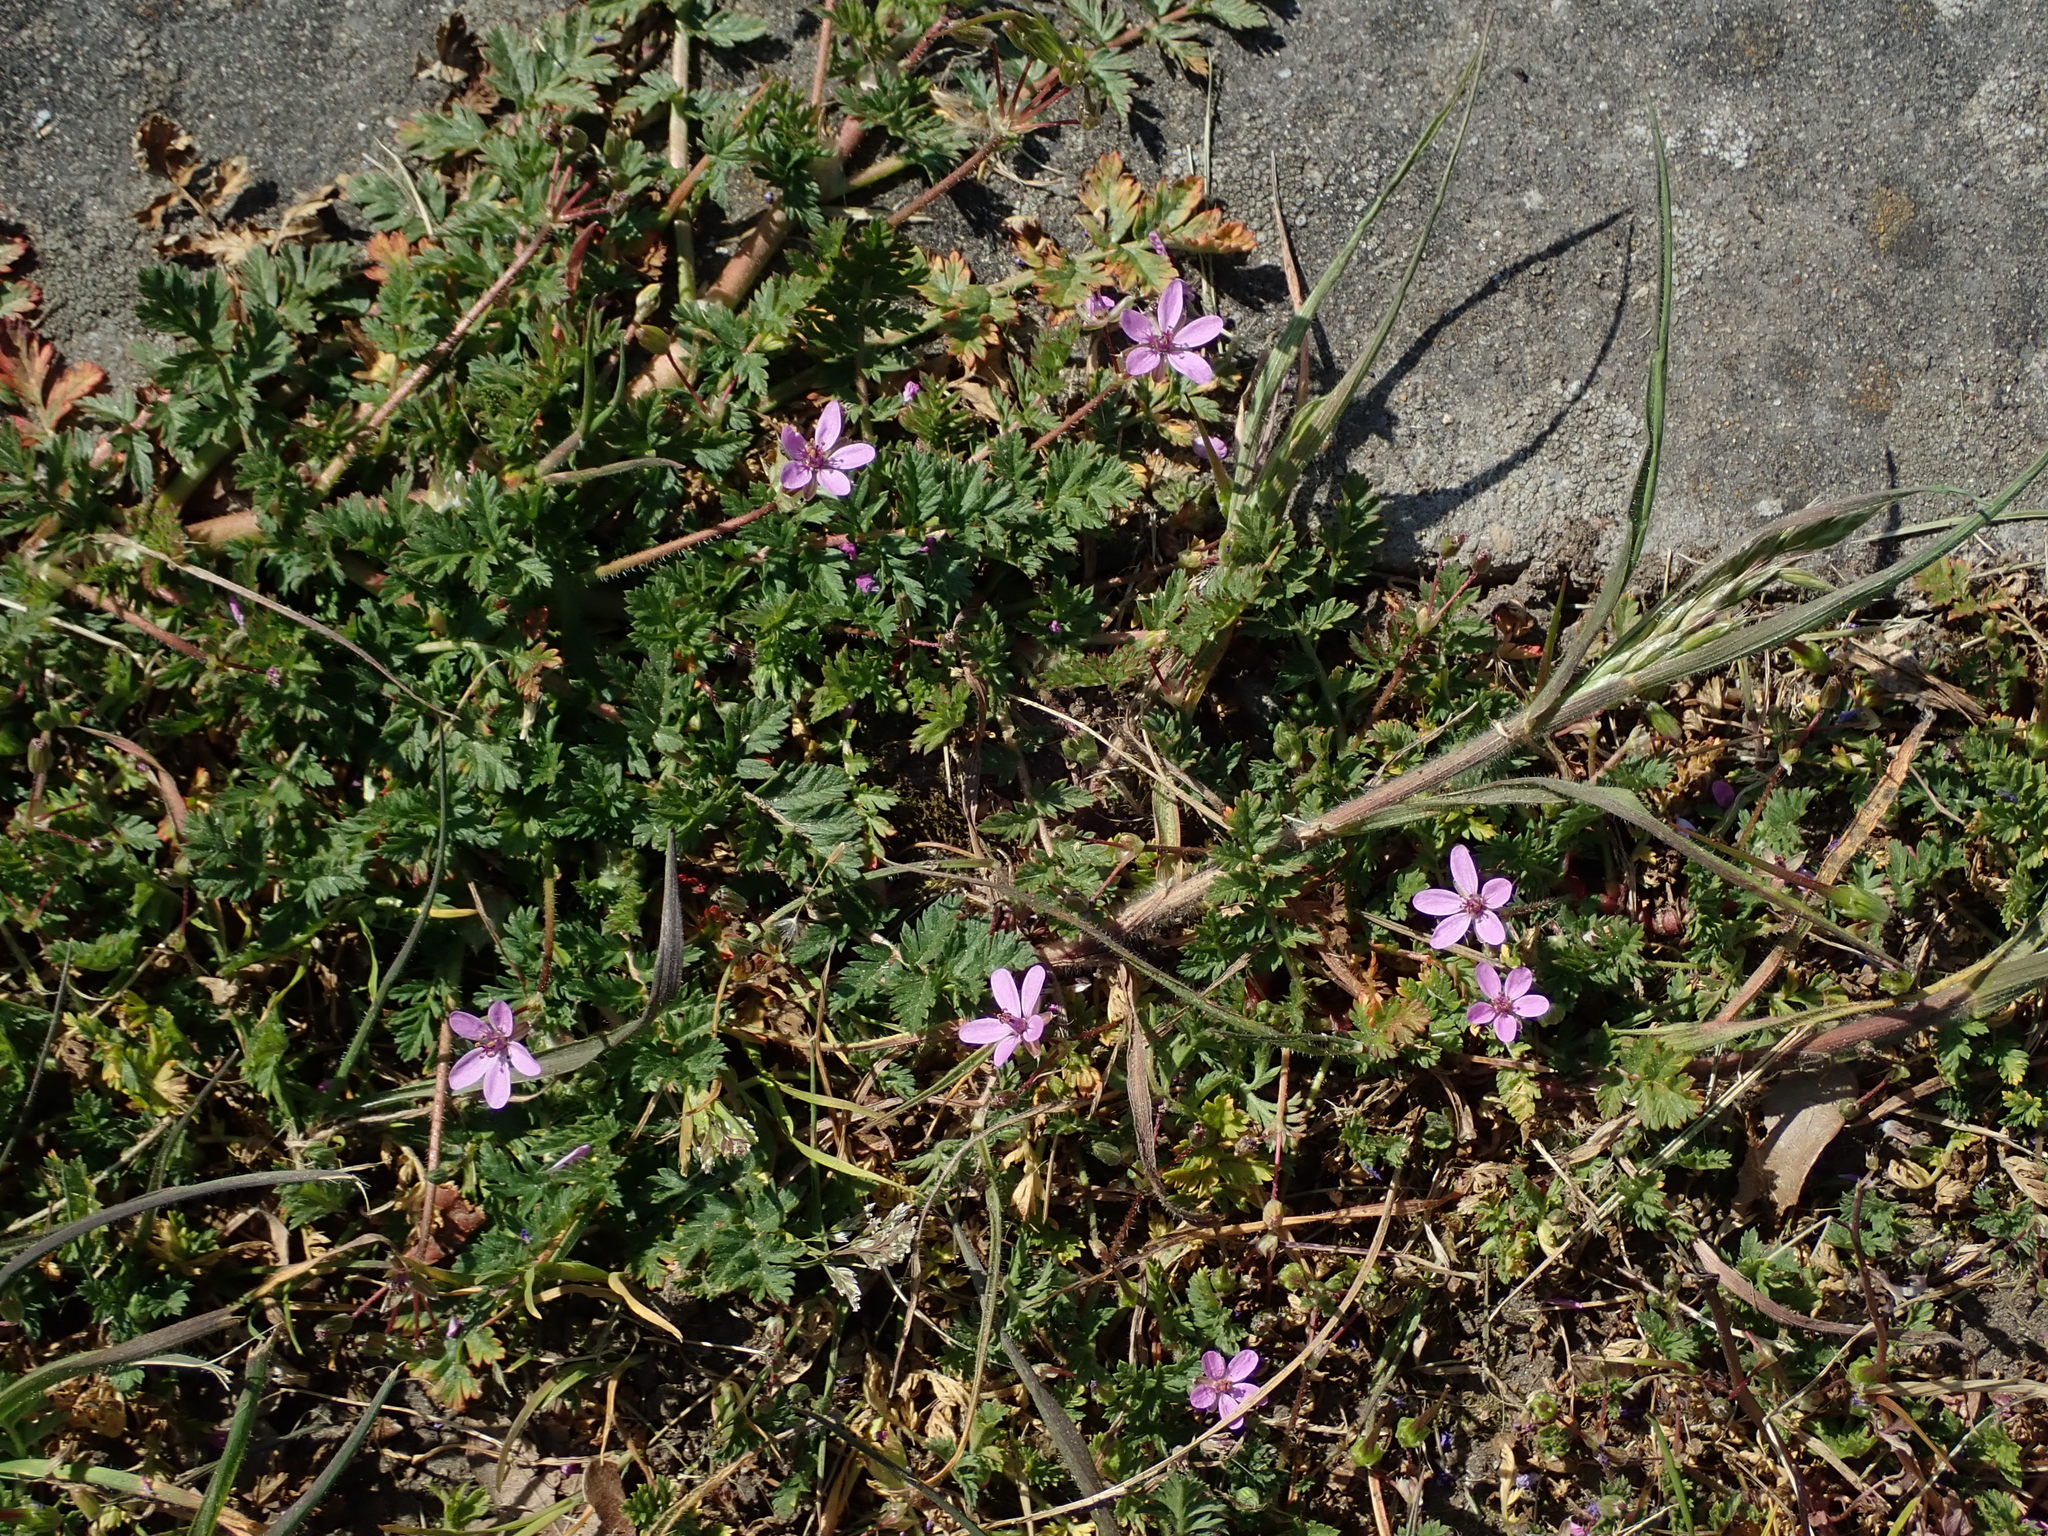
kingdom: Plantae
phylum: Tracheophyta
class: Magnoliopsida
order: Geraniales
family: Geraniaceae
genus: Erodium
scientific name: Erodium cicutarium
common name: Common stork's-bill
